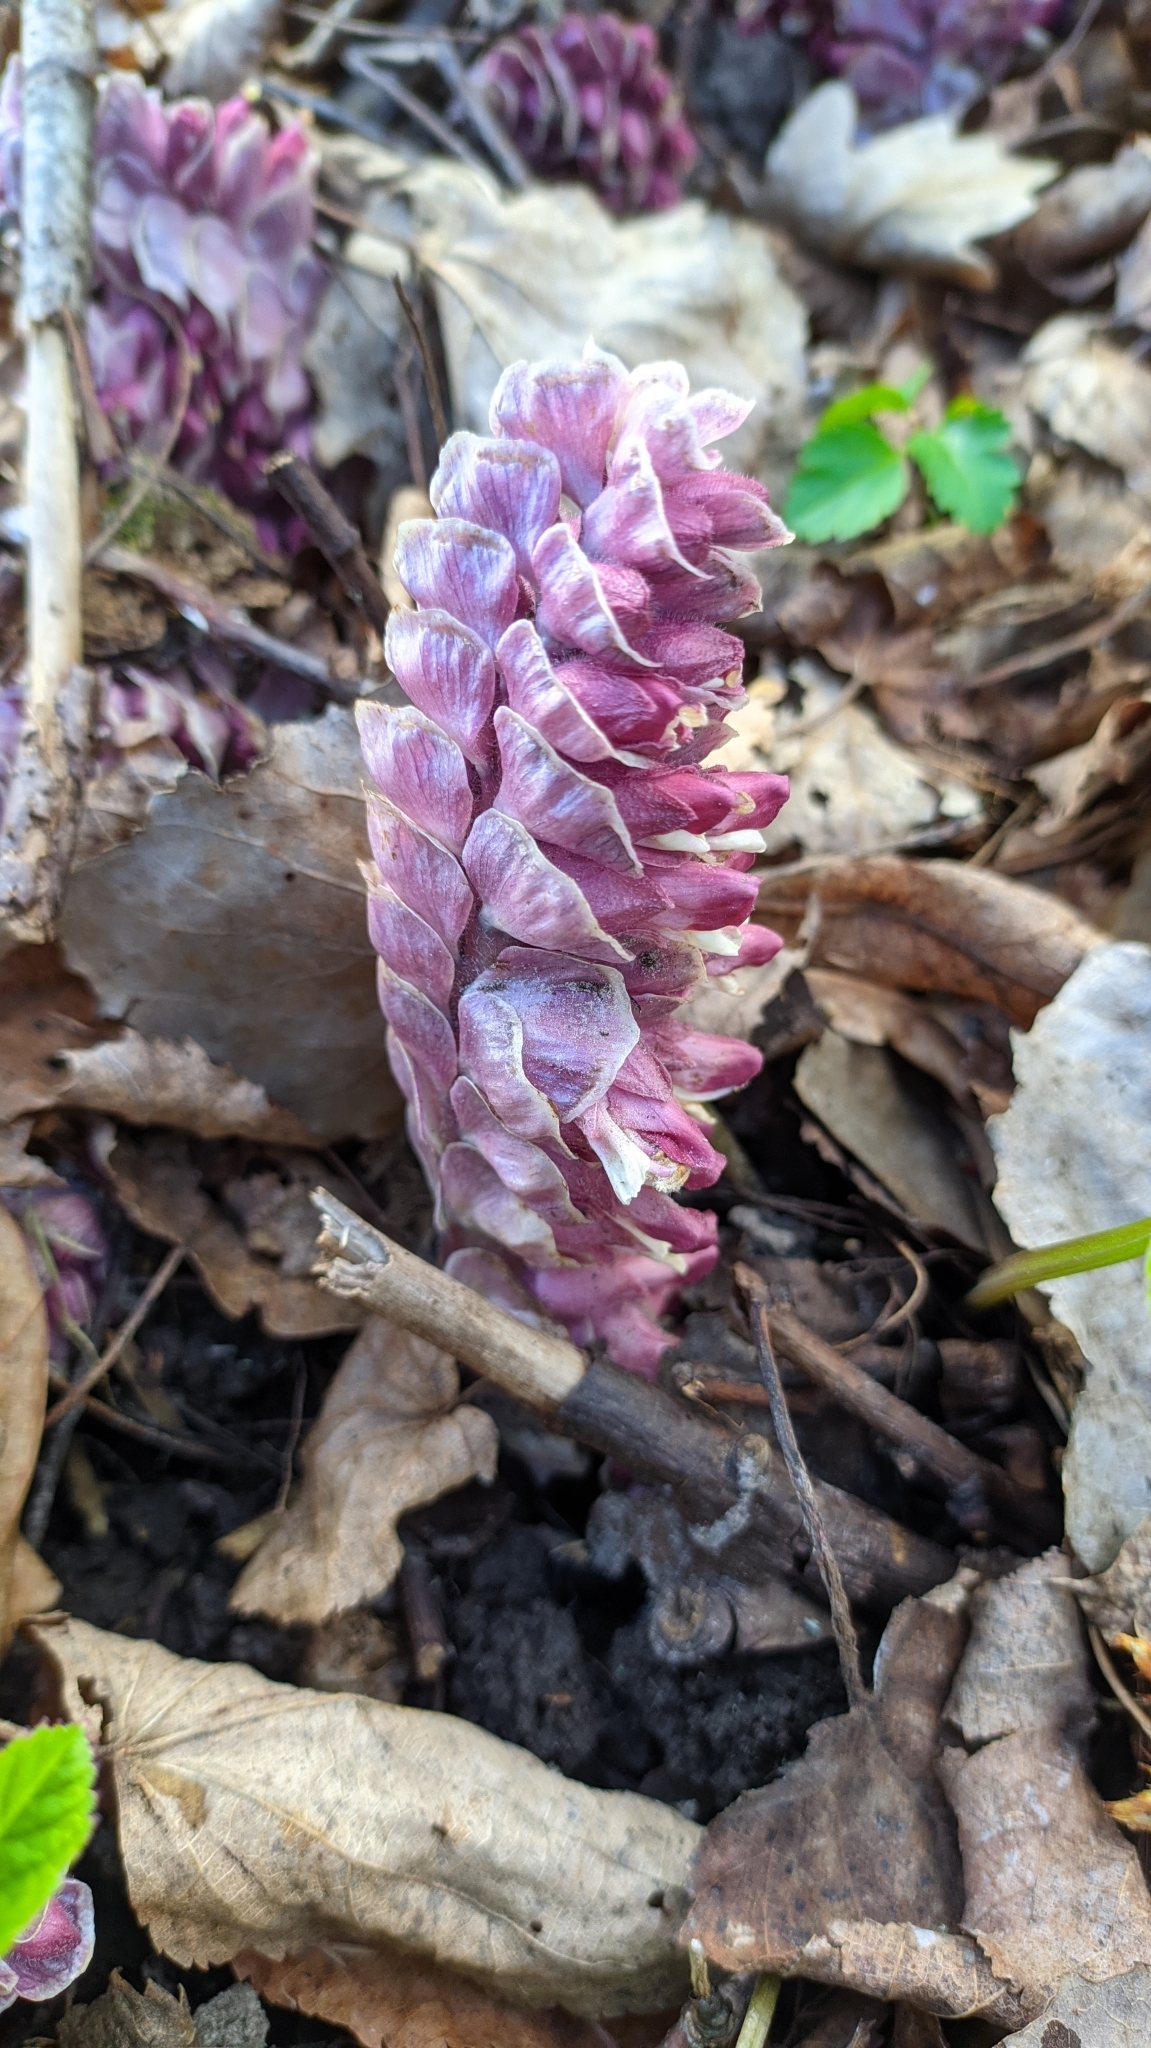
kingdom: Plantae
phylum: Tracheophyta
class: Magnoliopsida
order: Lamiales
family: Orobanchaceae
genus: Lathraea
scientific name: Lathraea squamaria
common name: Toothwort
